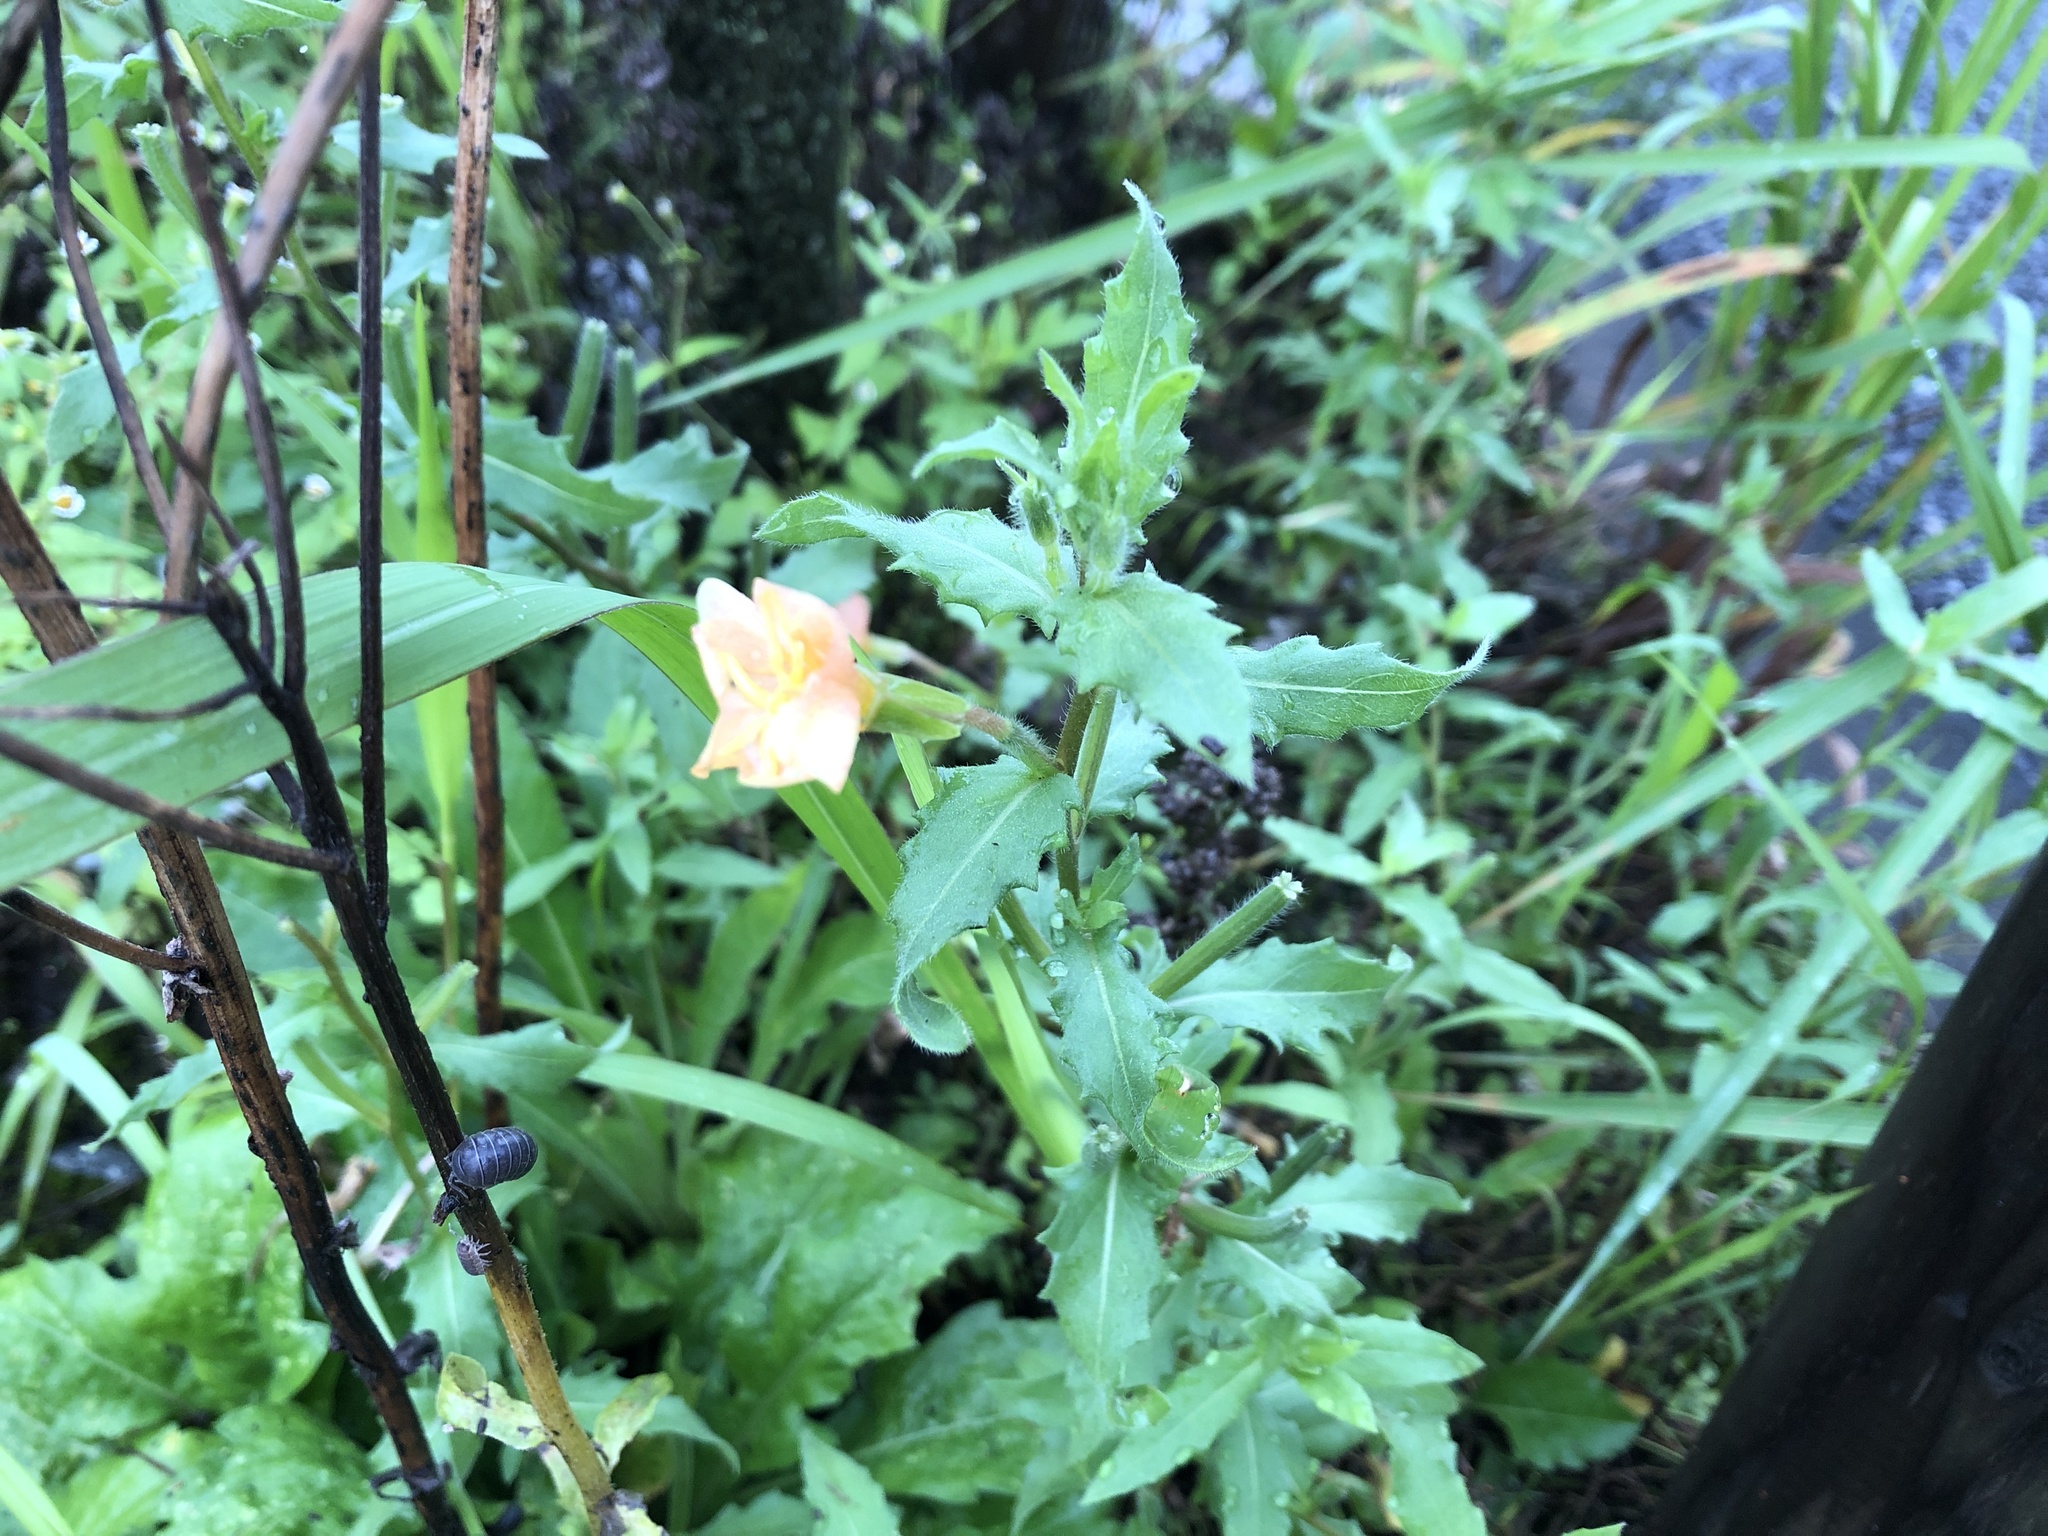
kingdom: Plantae
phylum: Tracheophyta
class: Magnoliopsida
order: Myrtales
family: Onagraceae
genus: Oenothera
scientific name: Oenothera laciniata
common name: Cut-leaved evening-primrose
